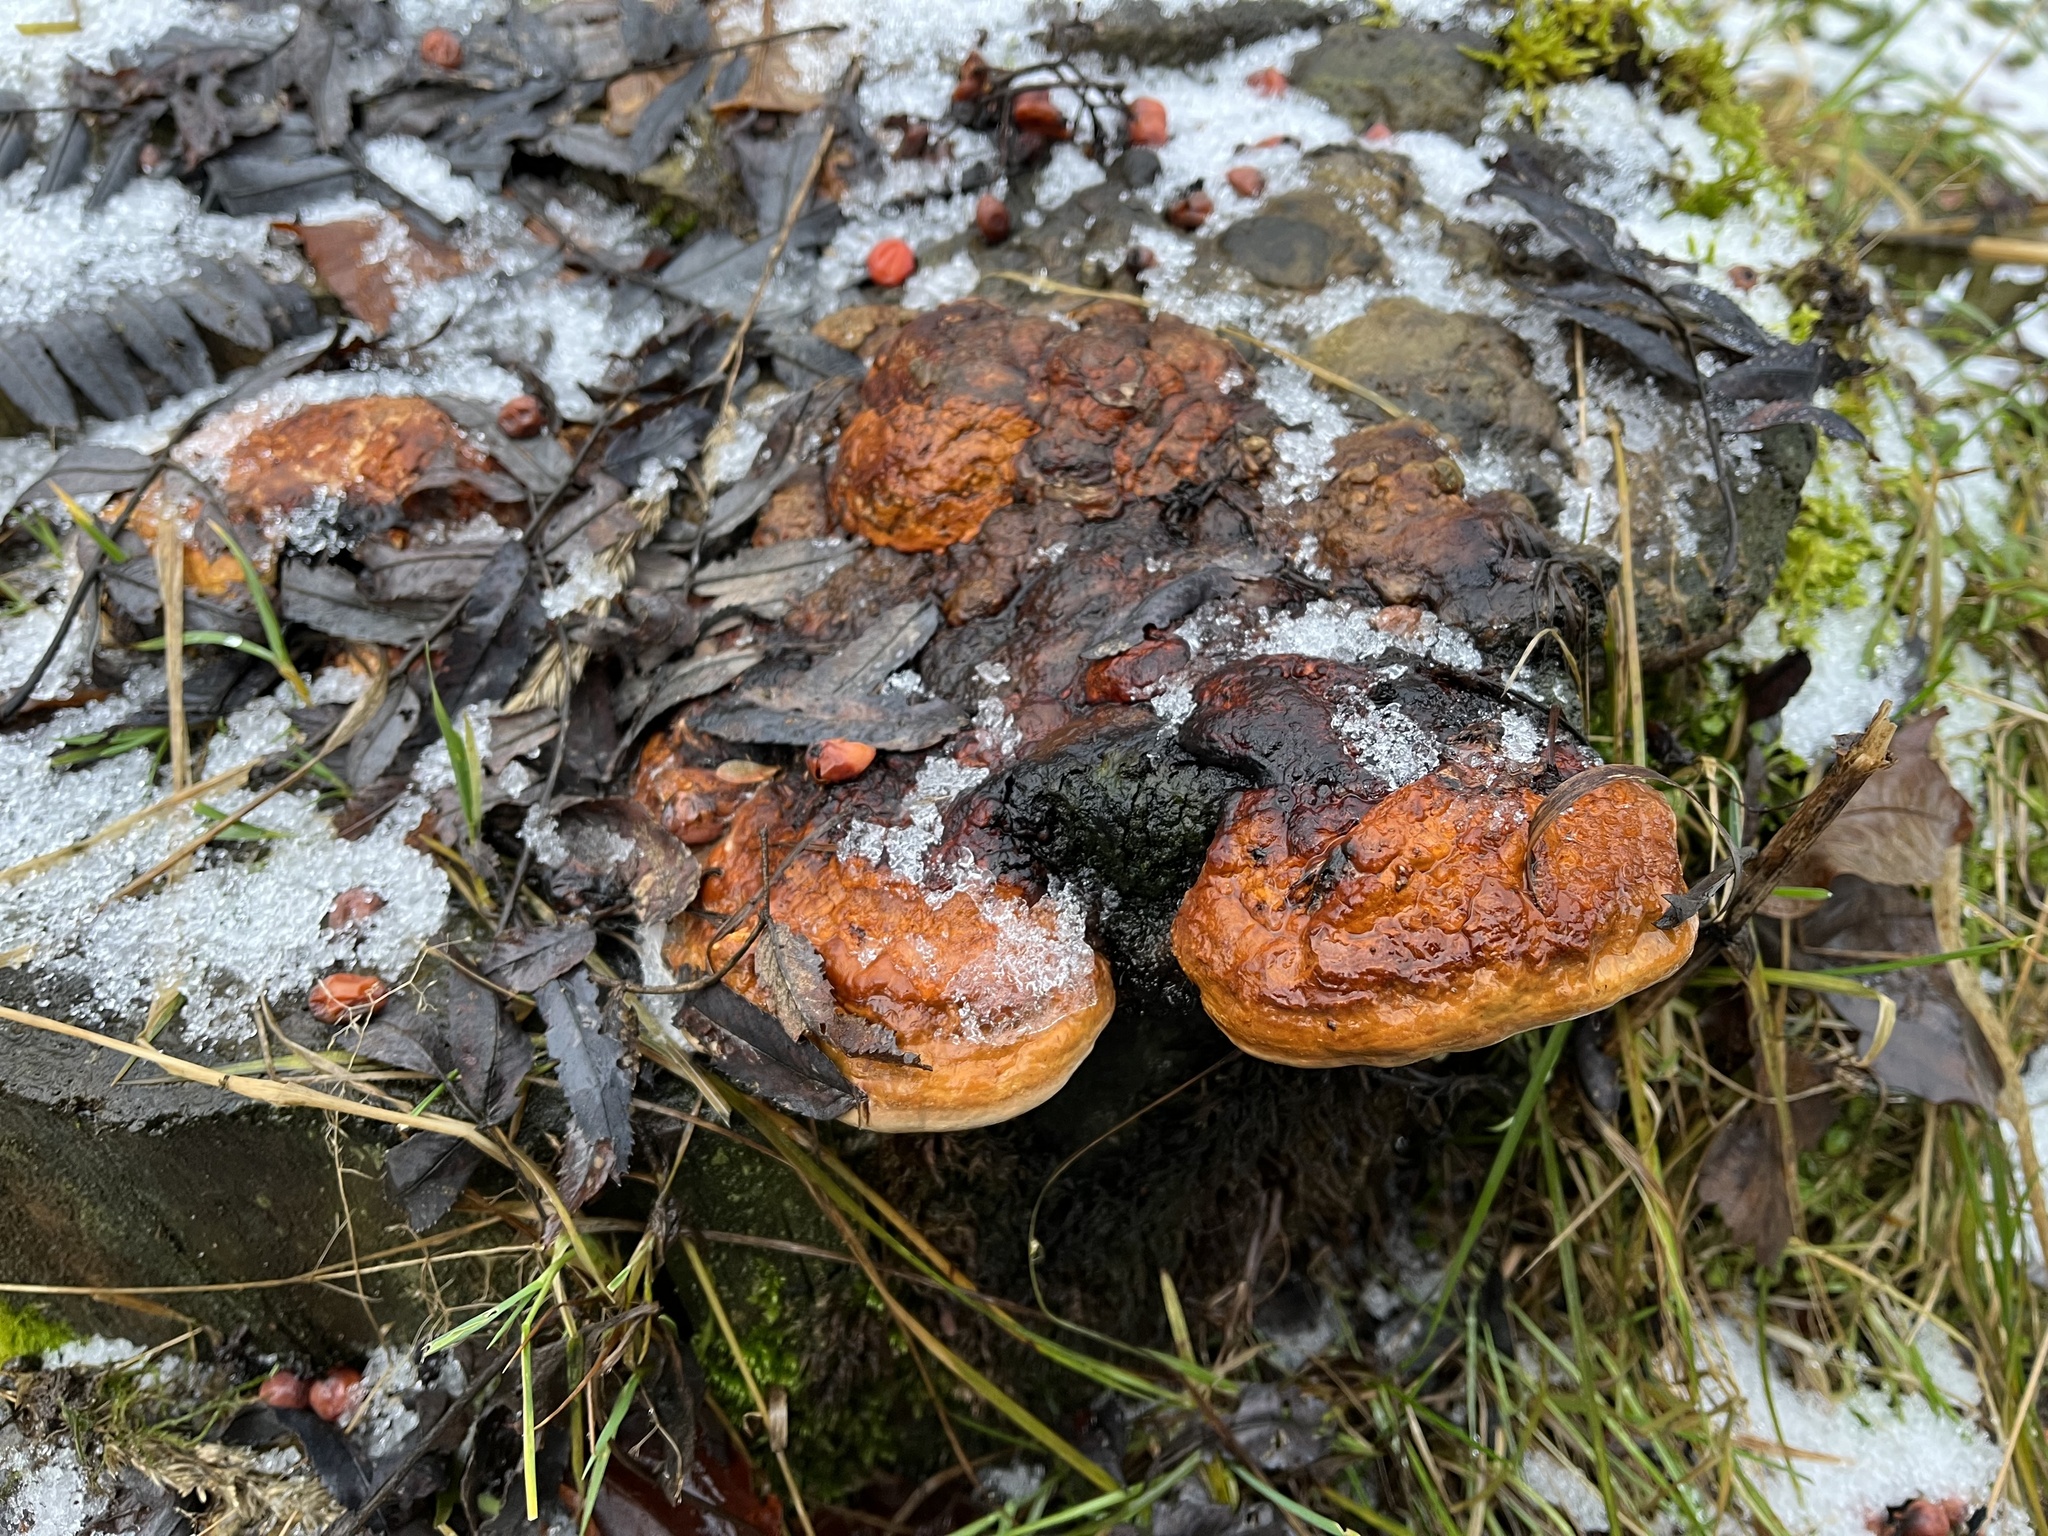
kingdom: Fungi
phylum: Basidiomycota
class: Agaricomycetes
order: Polyporales
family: Fomitopsidaceae
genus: Fomitopsis
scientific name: Fomitopsis pinicola
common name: Red-belted bracket
